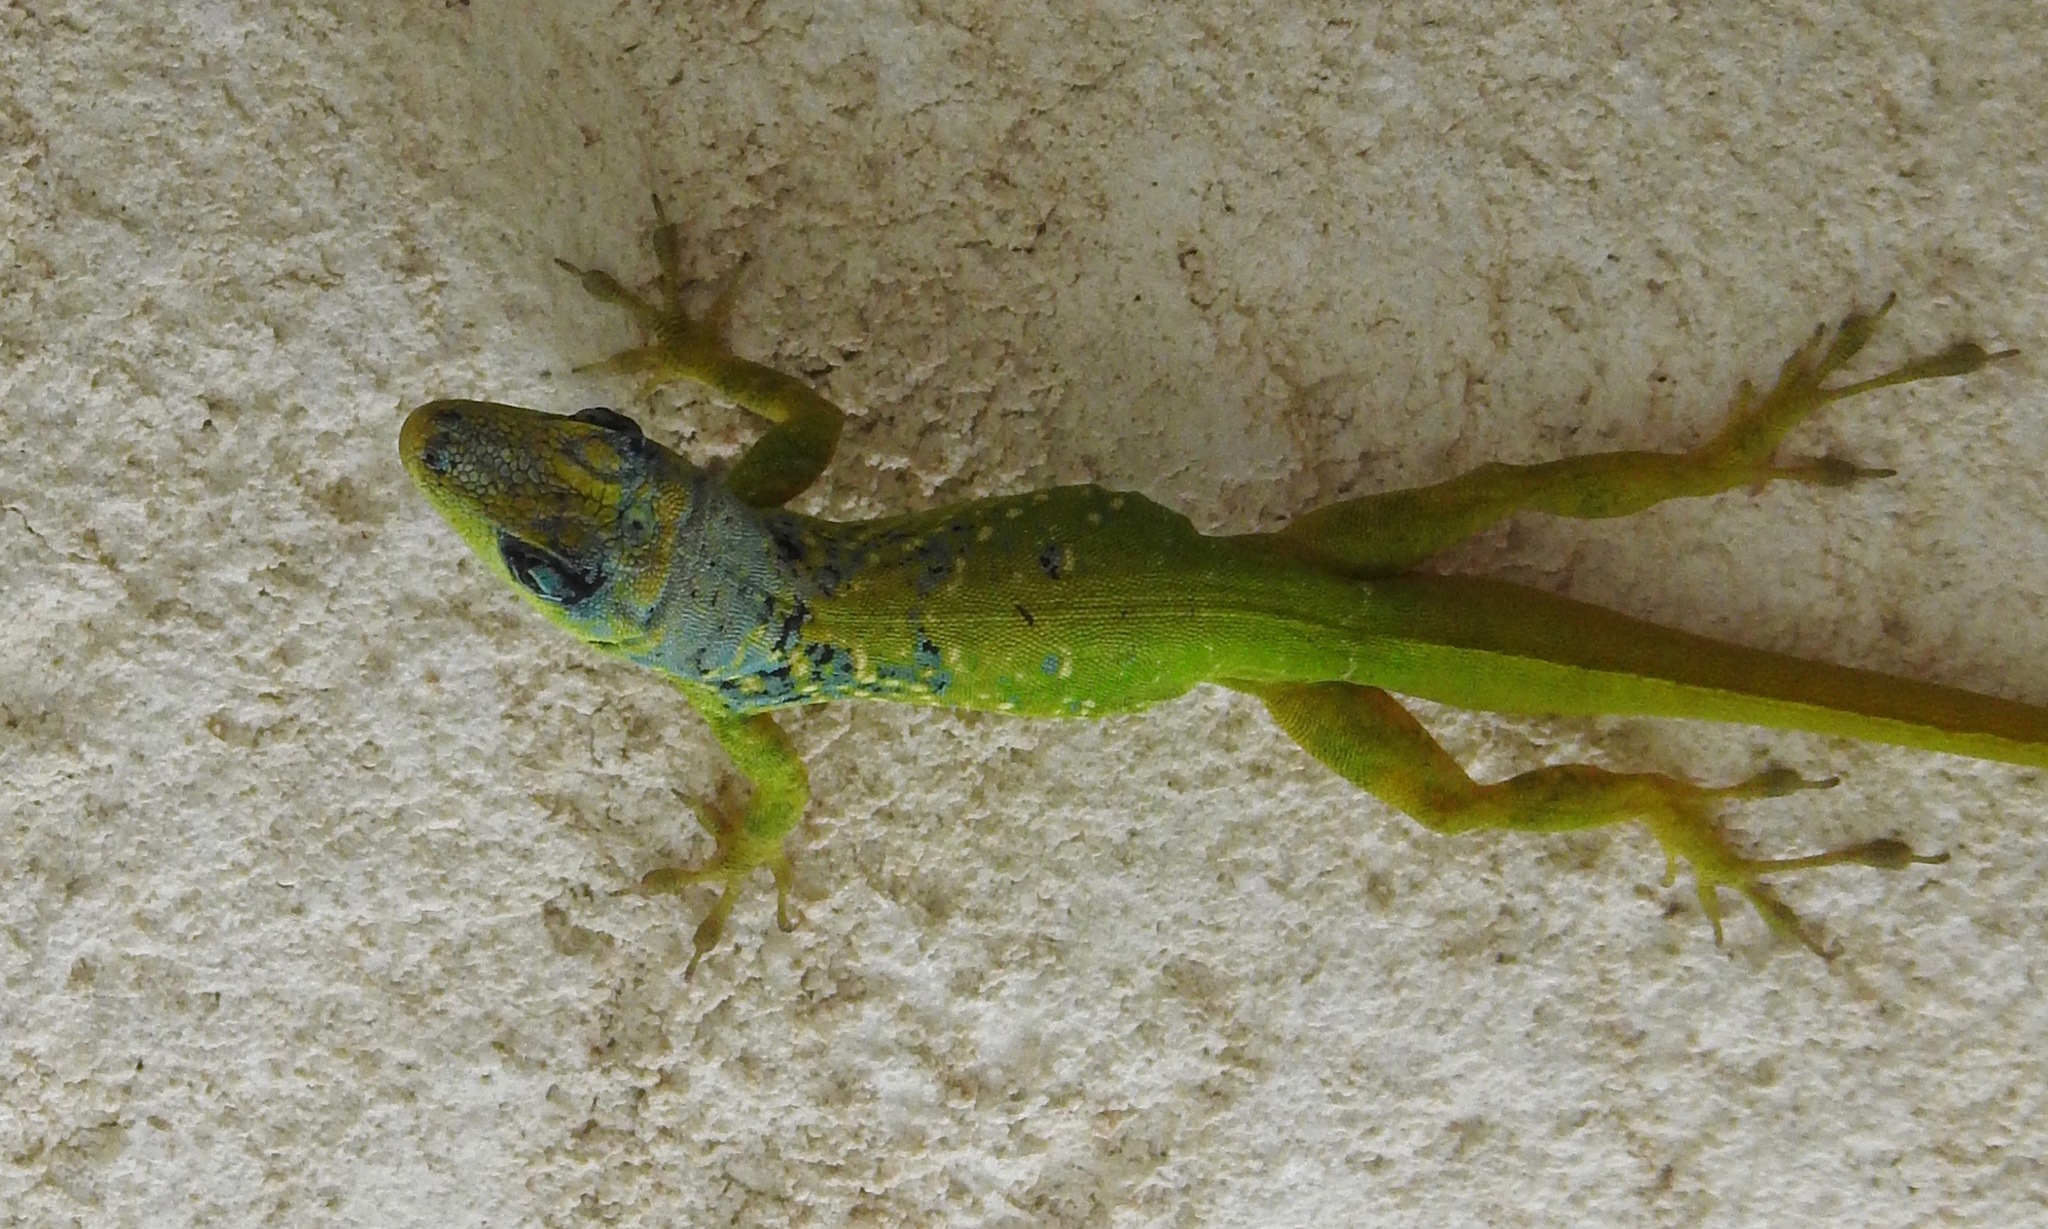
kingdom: Animalia
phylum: Chordata
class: Squamata
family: Dactyloidae
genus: Anolis
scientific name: Anolis extremus
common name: Barbados anole
